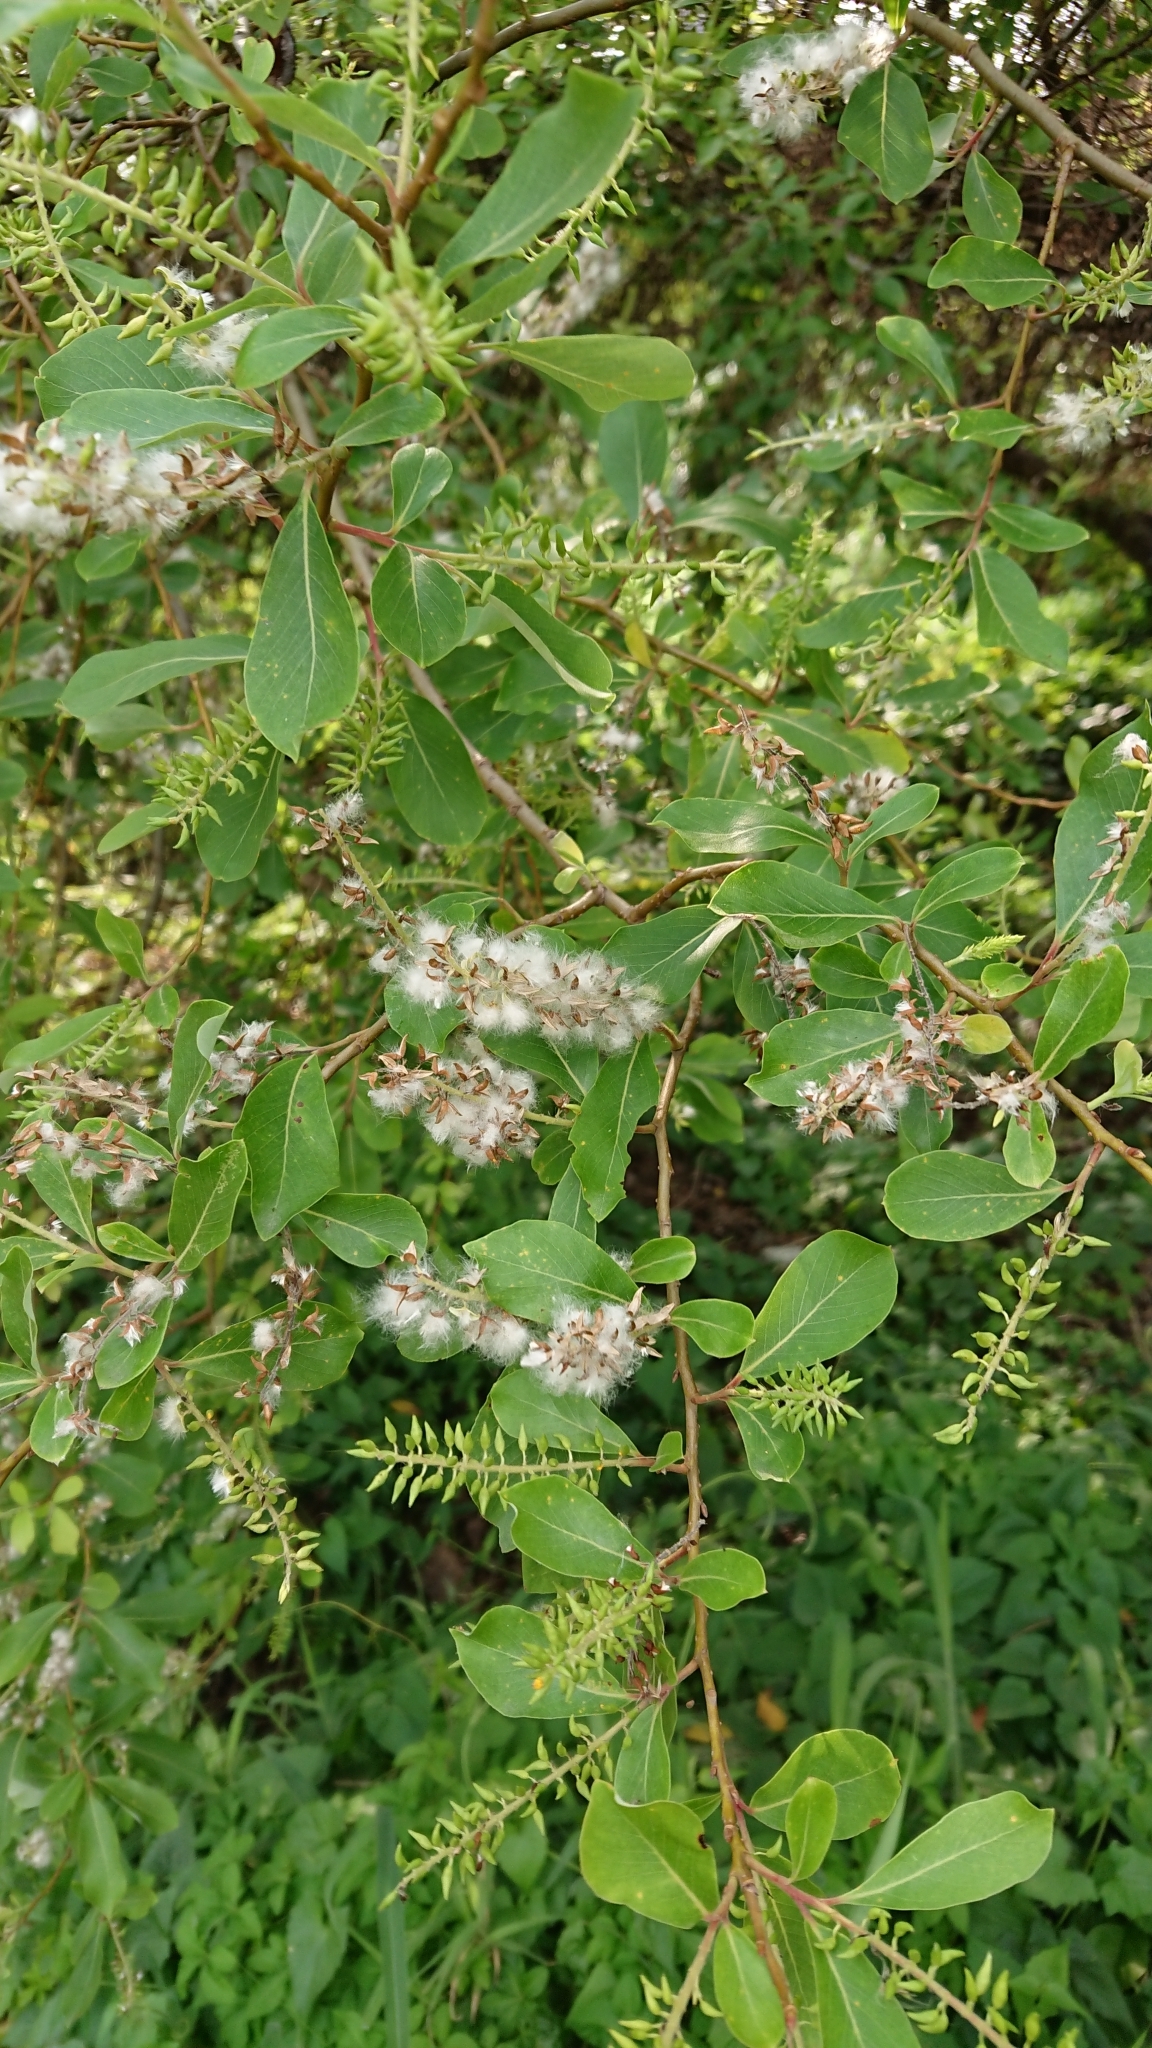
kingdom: Plantae
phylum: Tracheophyta
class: Magnoliopsida
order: Malpighiales
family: Salicaceae
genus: Salix
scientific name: Salix mesnyi
